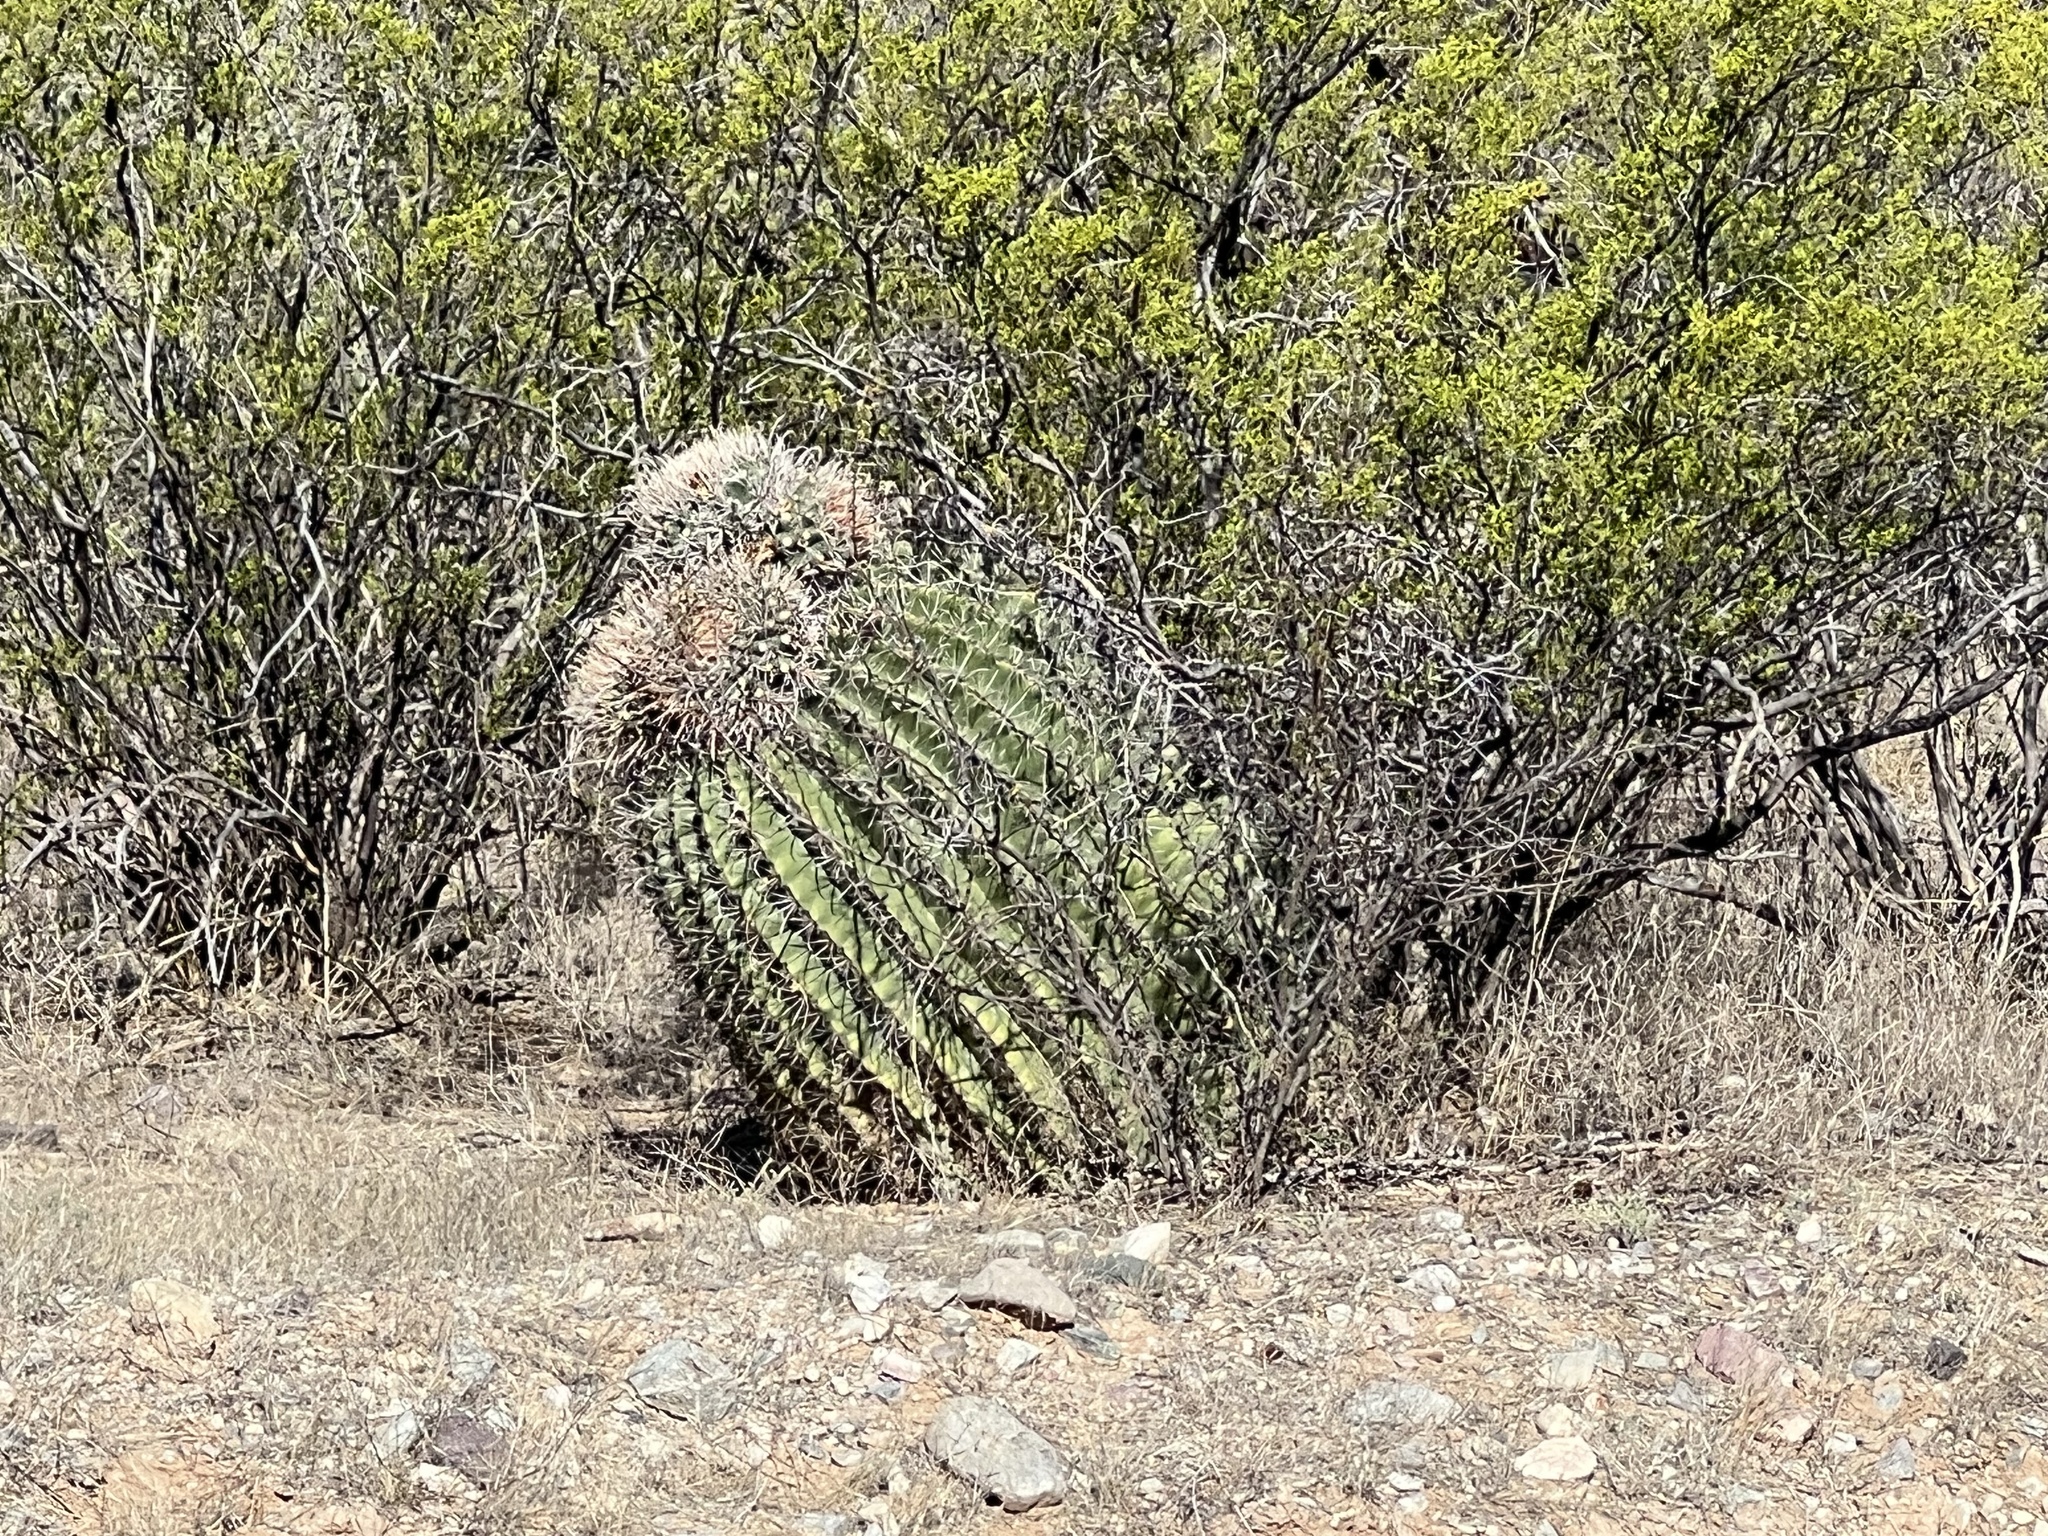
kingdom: Plantae
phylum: Tracheophyta
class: Magnoliopsida
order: Caryophyllales
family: Cactaceae
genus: Ferocactus
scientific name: Ferocactus wislizeni
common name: Candy barrel cactus
